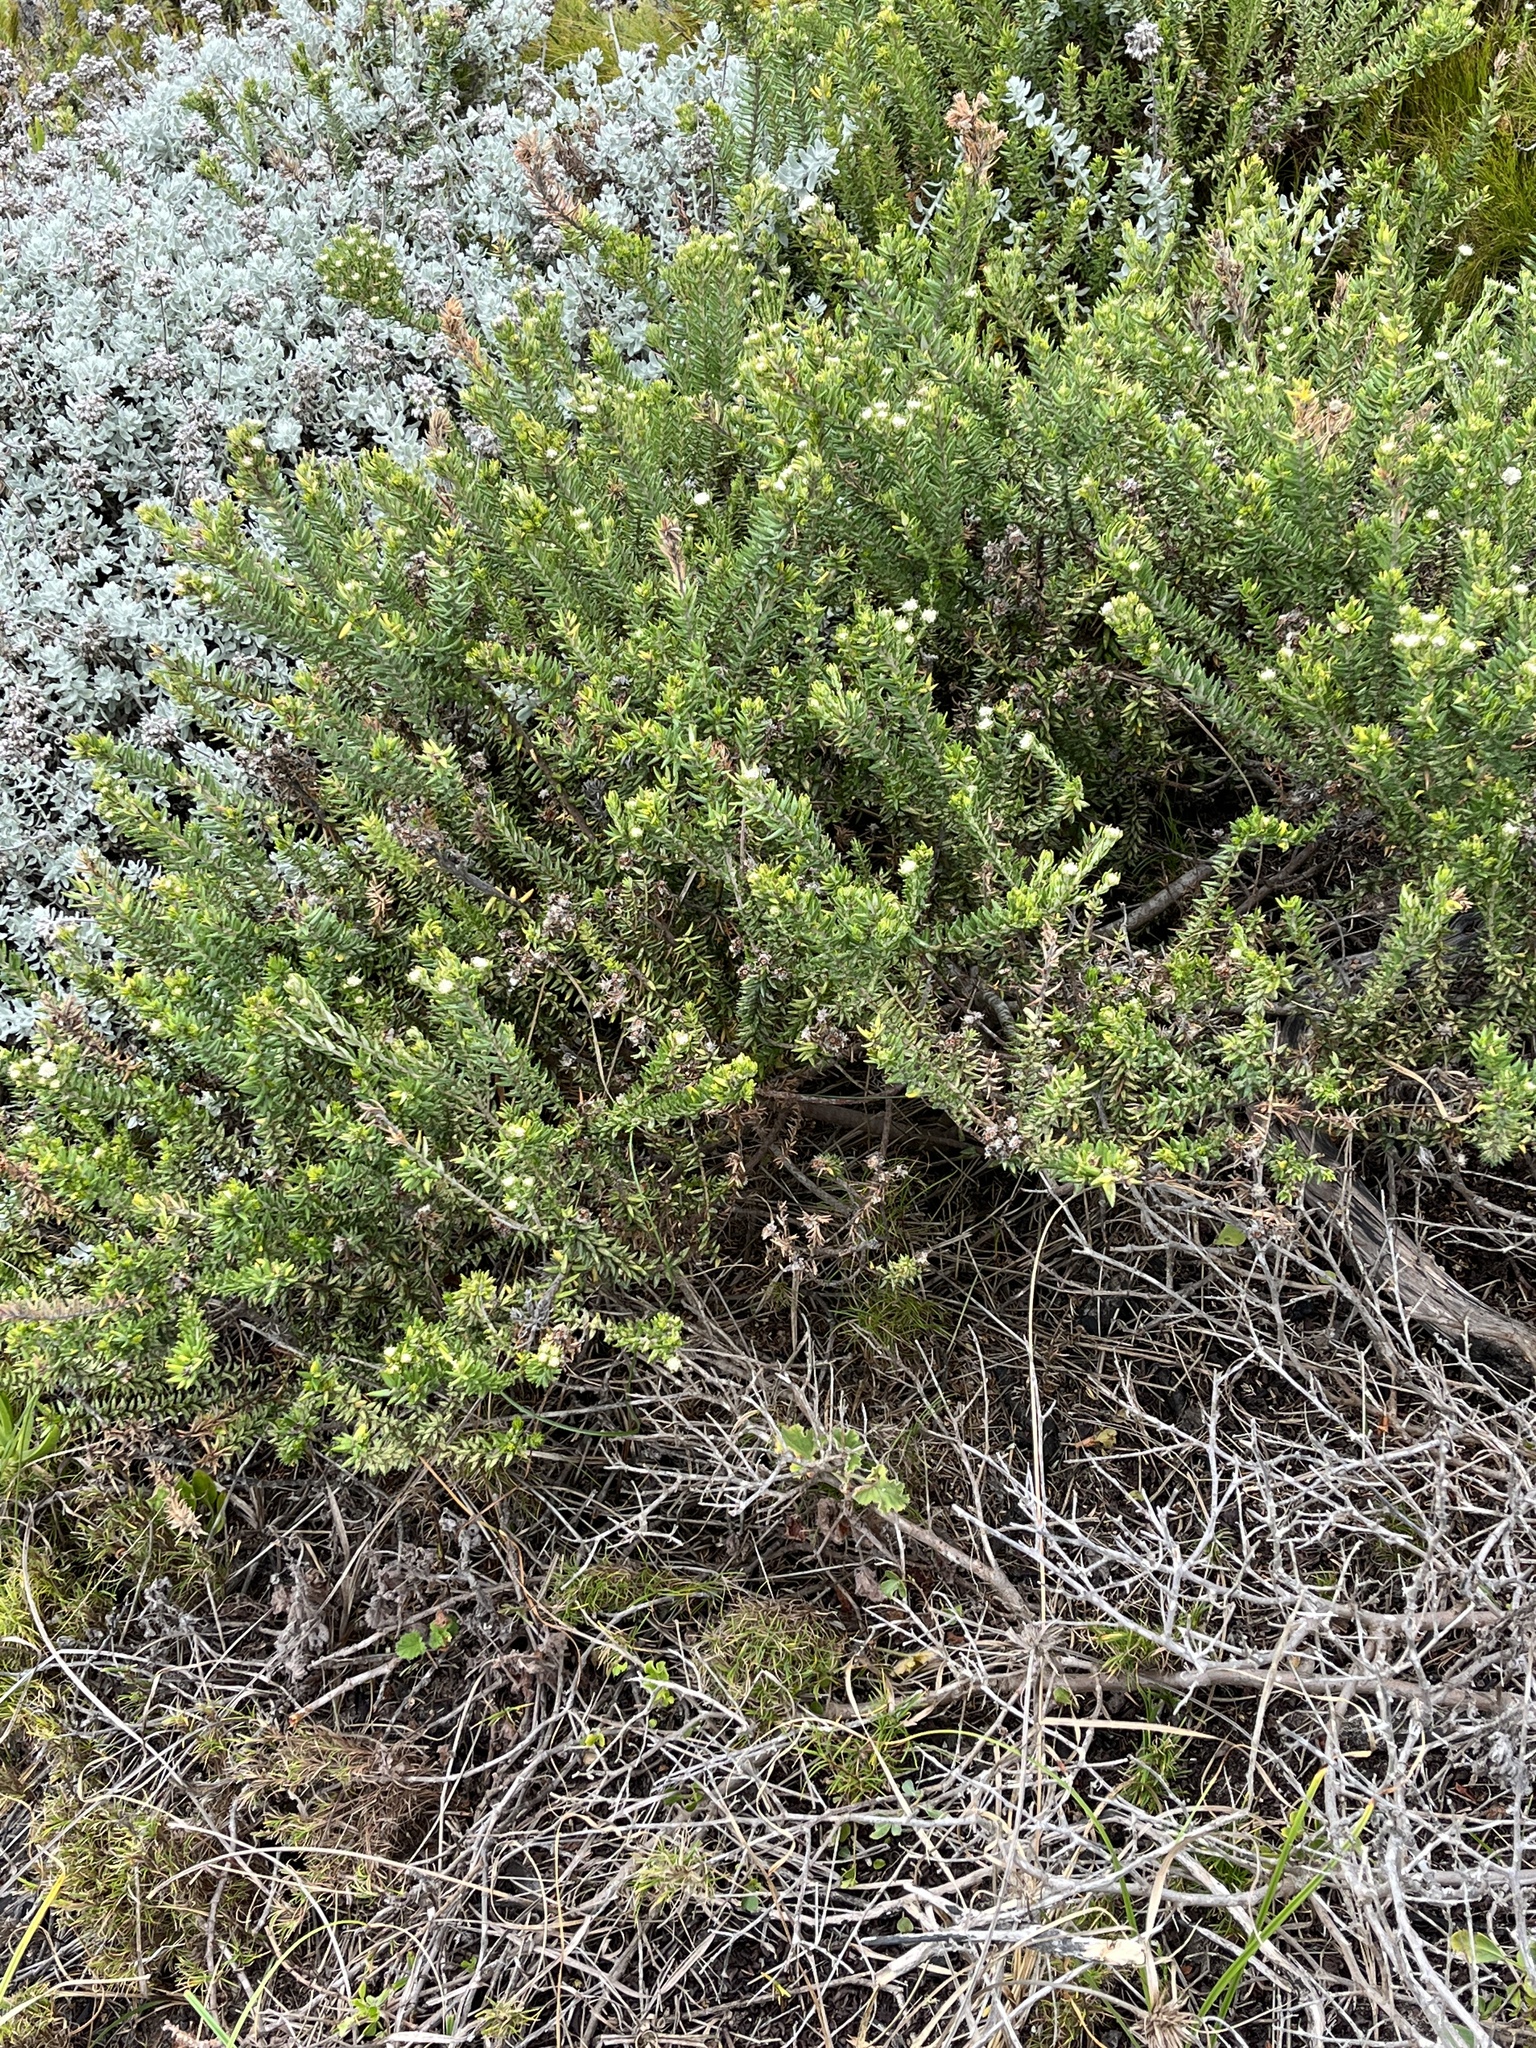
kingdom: Plantae
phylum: Tracheophyta
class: Magnoliopsida
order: Rosales
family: Rhamnaceae
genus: Phylica
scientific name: Phylica litoralis
